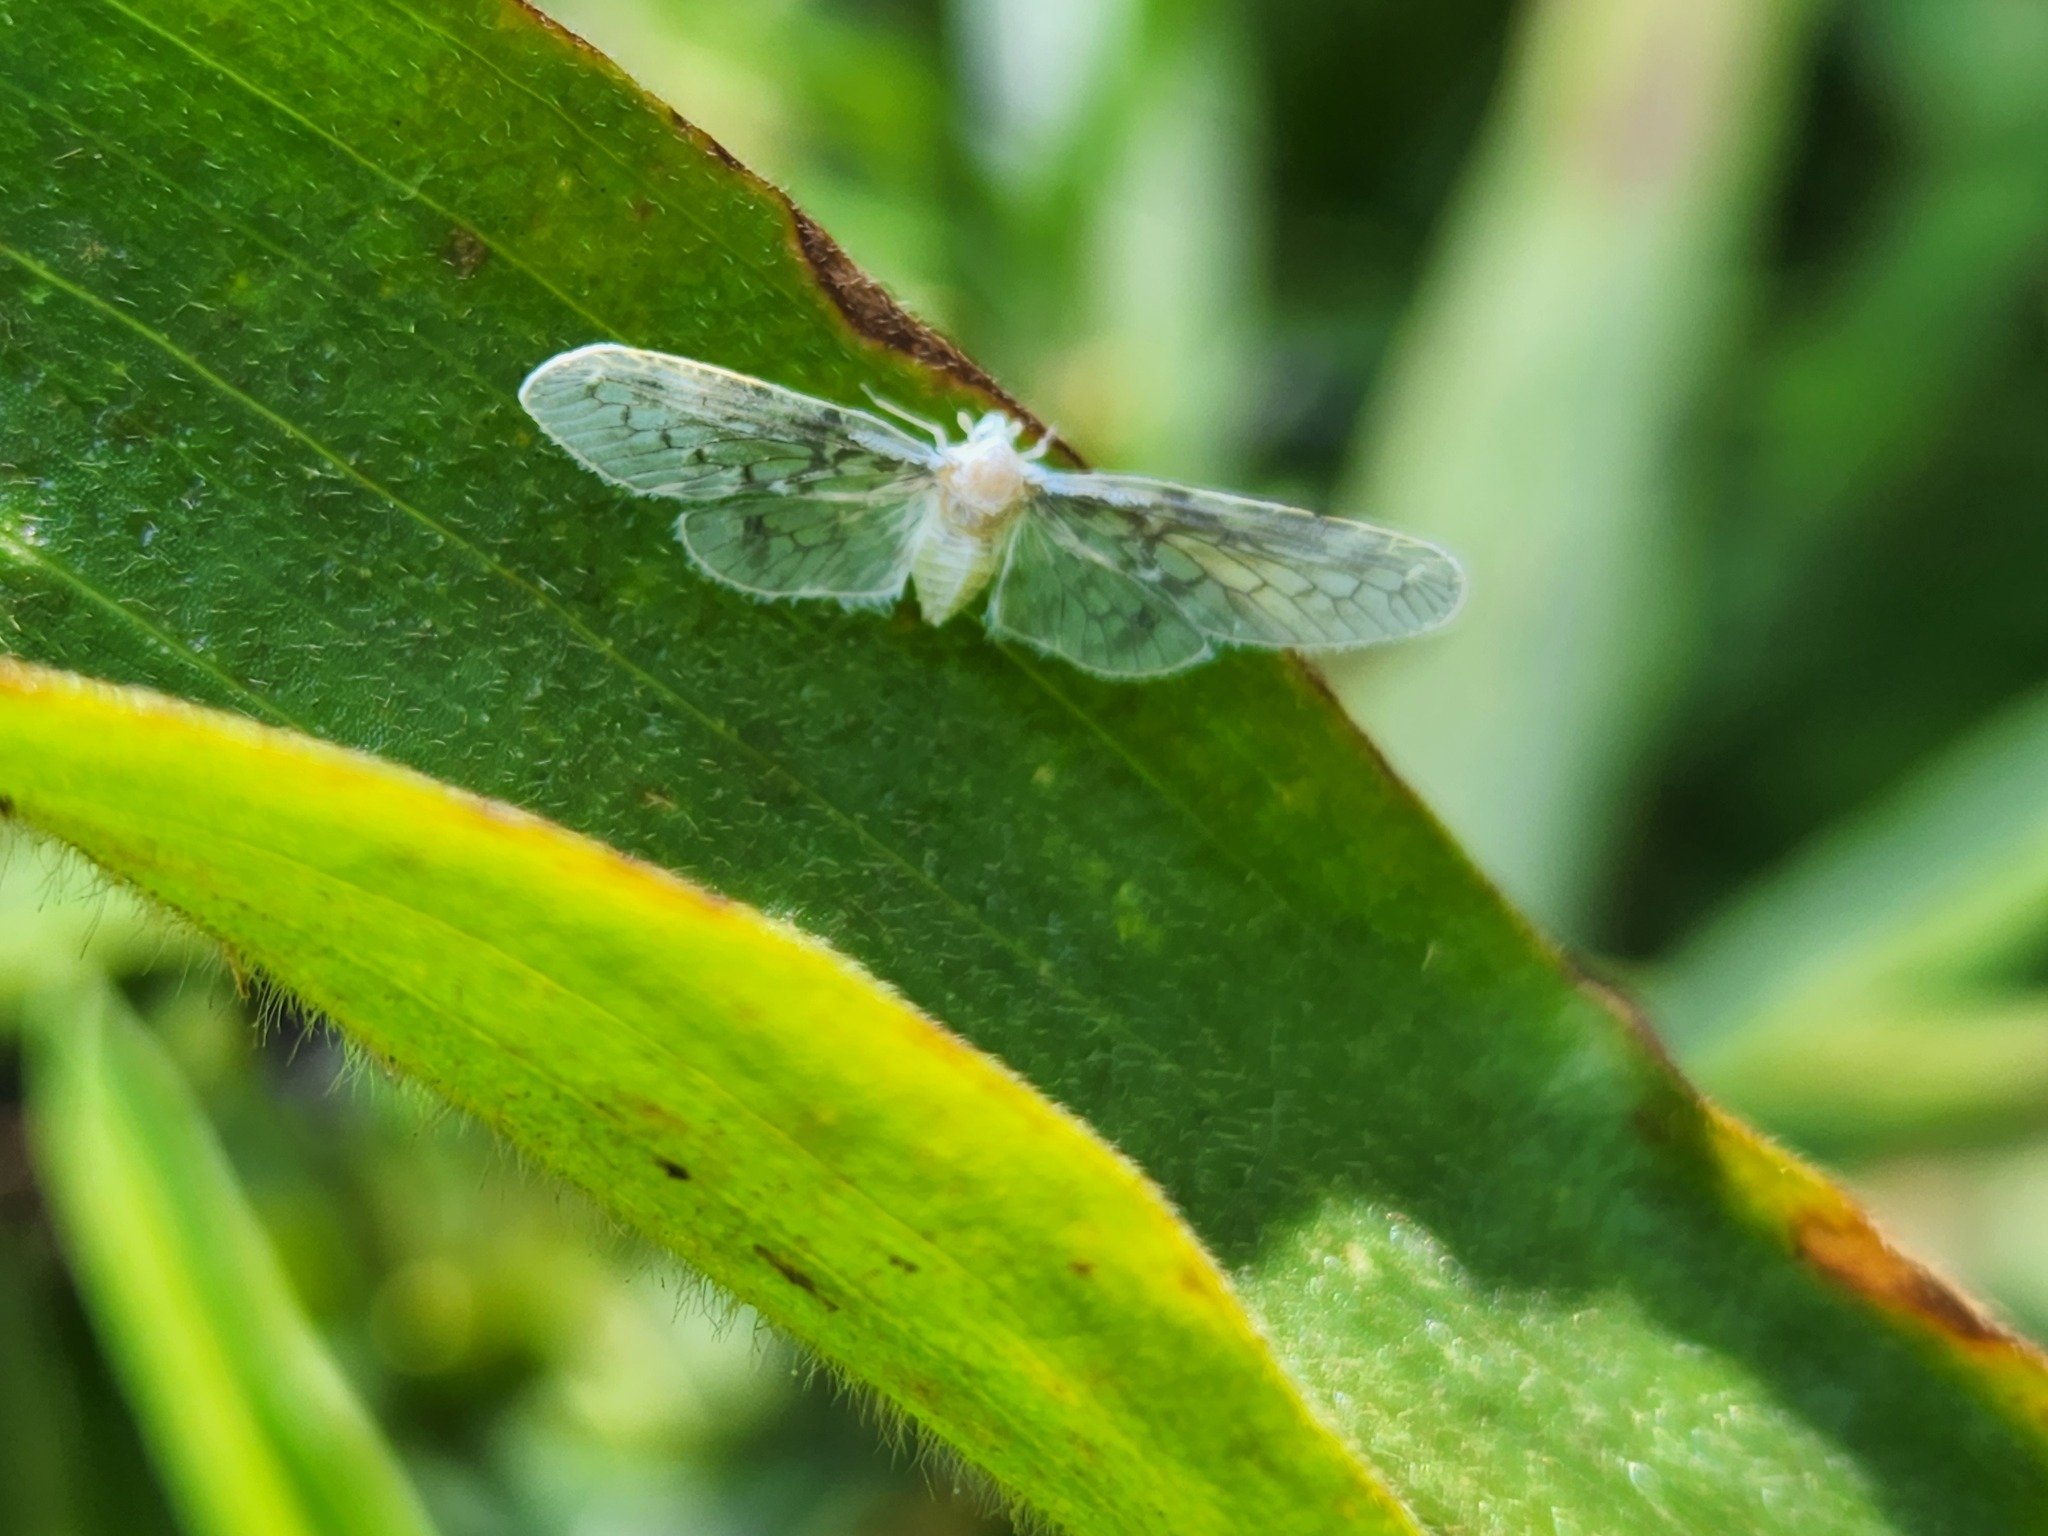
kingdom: Animalia
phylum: Arthropoda
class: Insecta
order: Hemiptera
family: Derbidae
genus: Paramysidia
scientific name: Paramysidia mississippiensis
